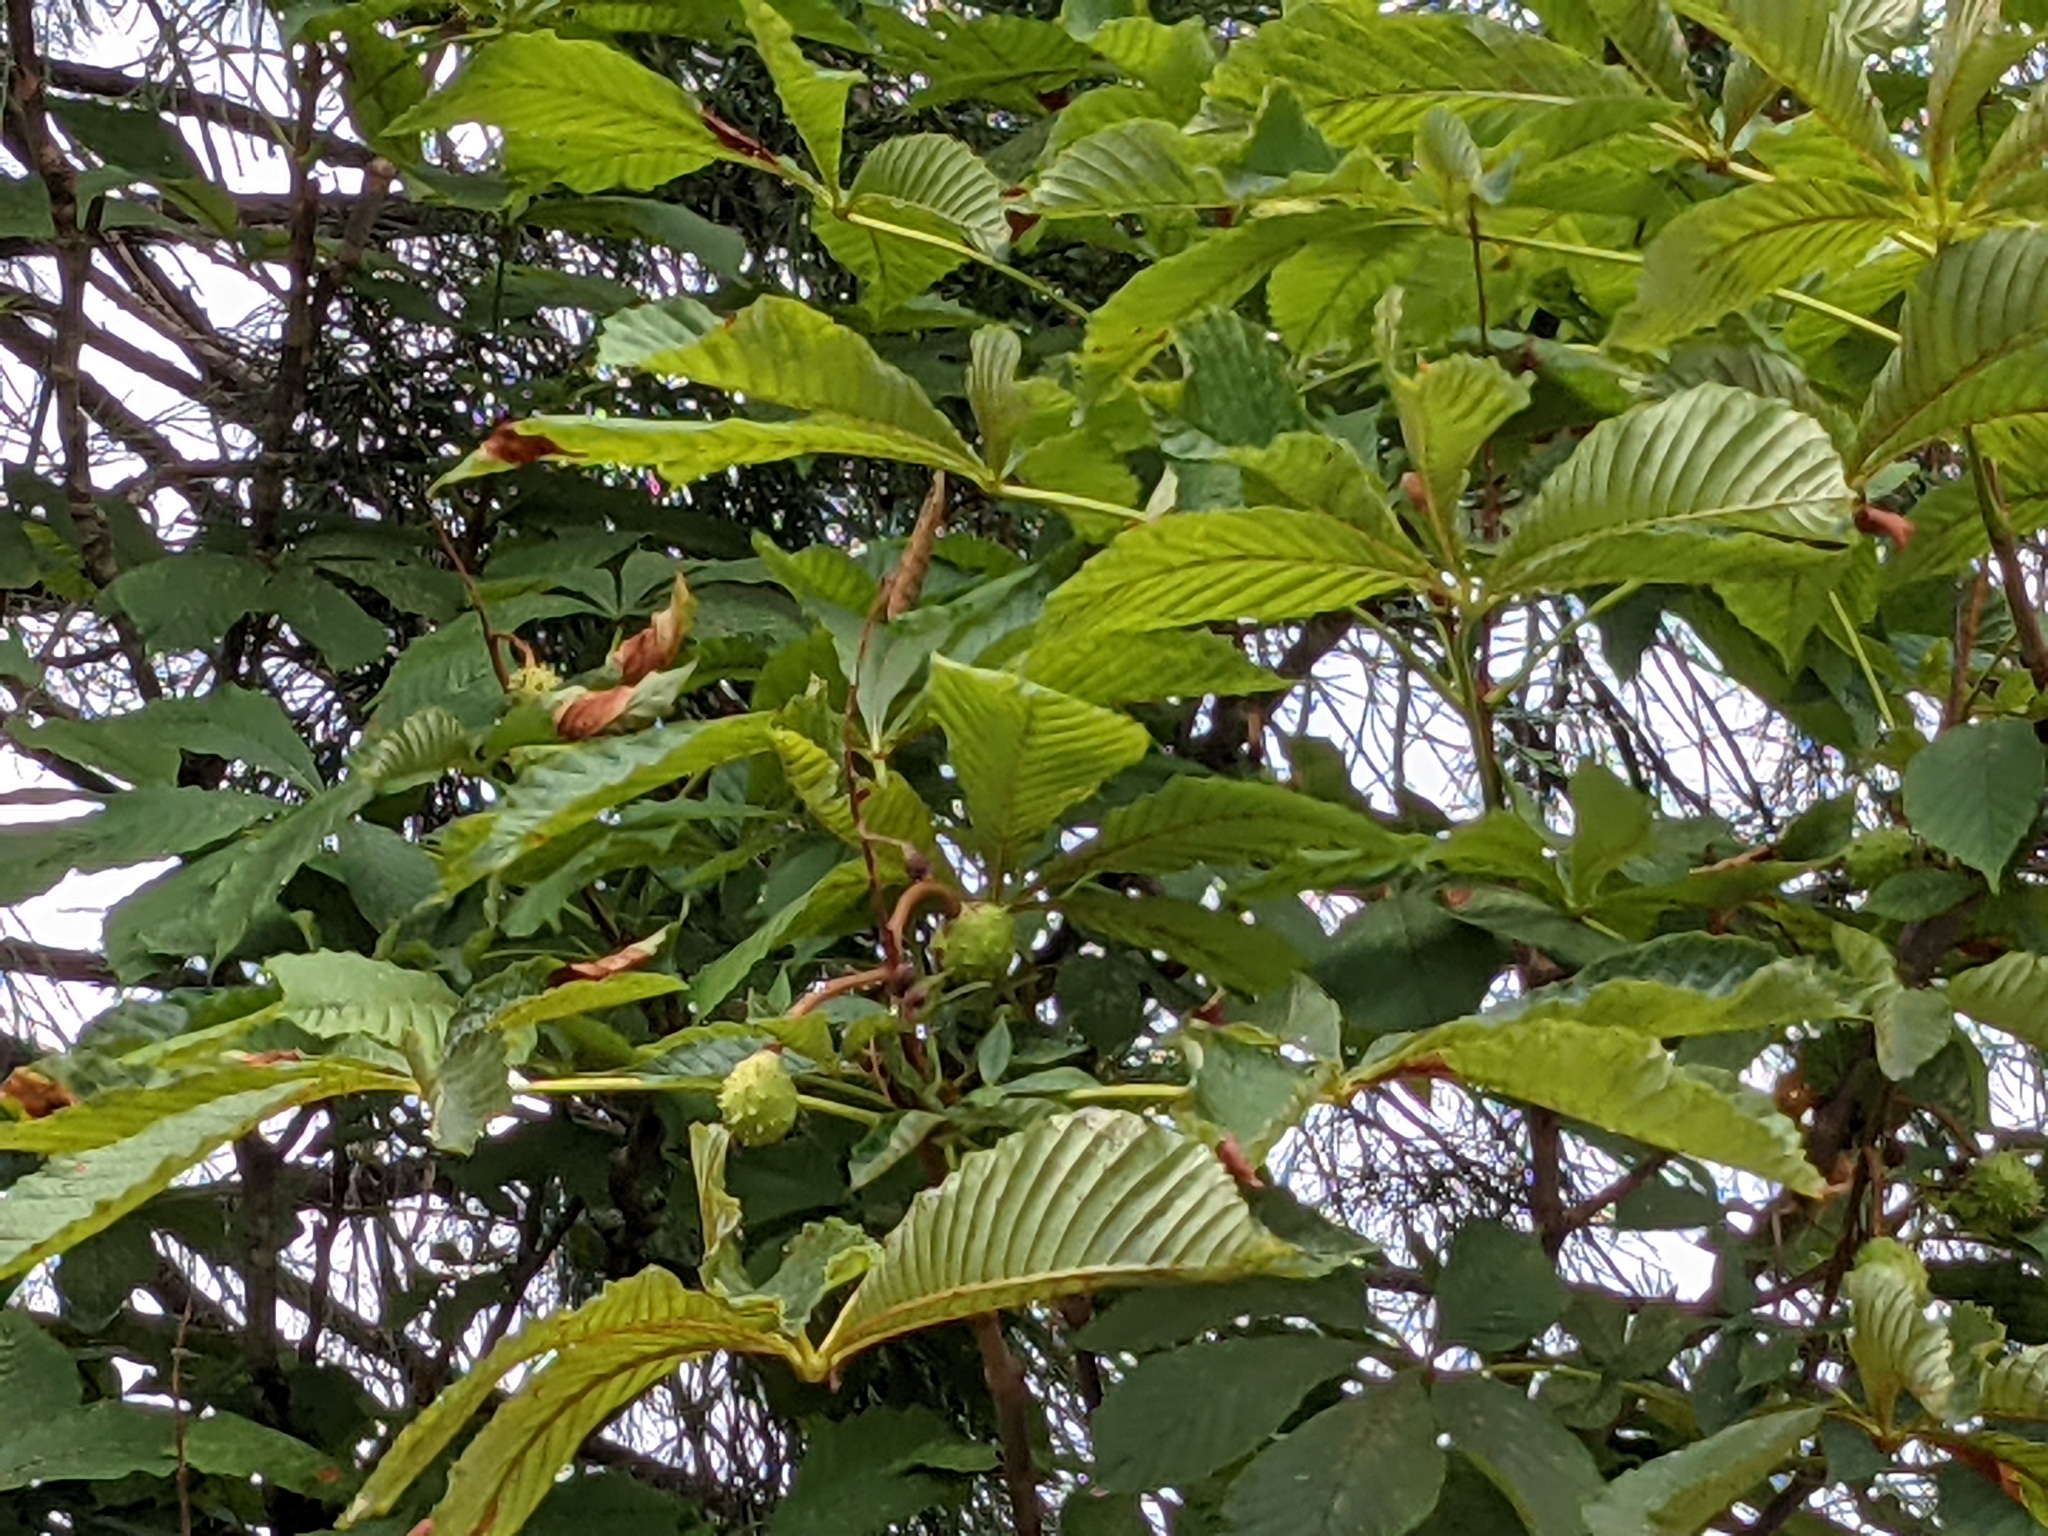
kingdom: Plantae
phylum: Tracheophyta
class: Magnoliopsida
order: Sapindales
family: Sapindaceae
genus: Aesculus
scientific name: Aesculus hippocastanum
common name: Horse-chestnut
